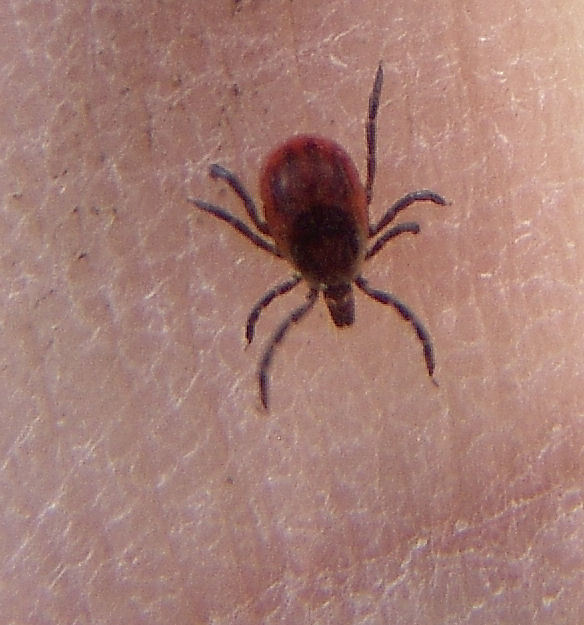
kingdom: Animalia
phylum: Arthropoda
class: Arachnida
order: Ixodida
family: Ixodidae
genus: Ixodes
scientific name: Ixodes scapularis
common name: Black legged tick
